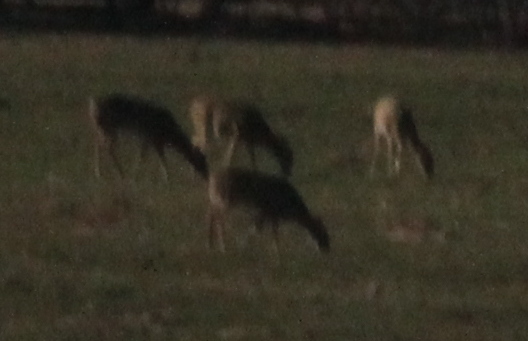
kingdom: Animalia
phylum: Chordata
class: Mammalia
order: Artiodactyla
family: Cervidae
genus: Odocoileus
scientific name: Odocoileus virginianus
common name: White-tailed deer
